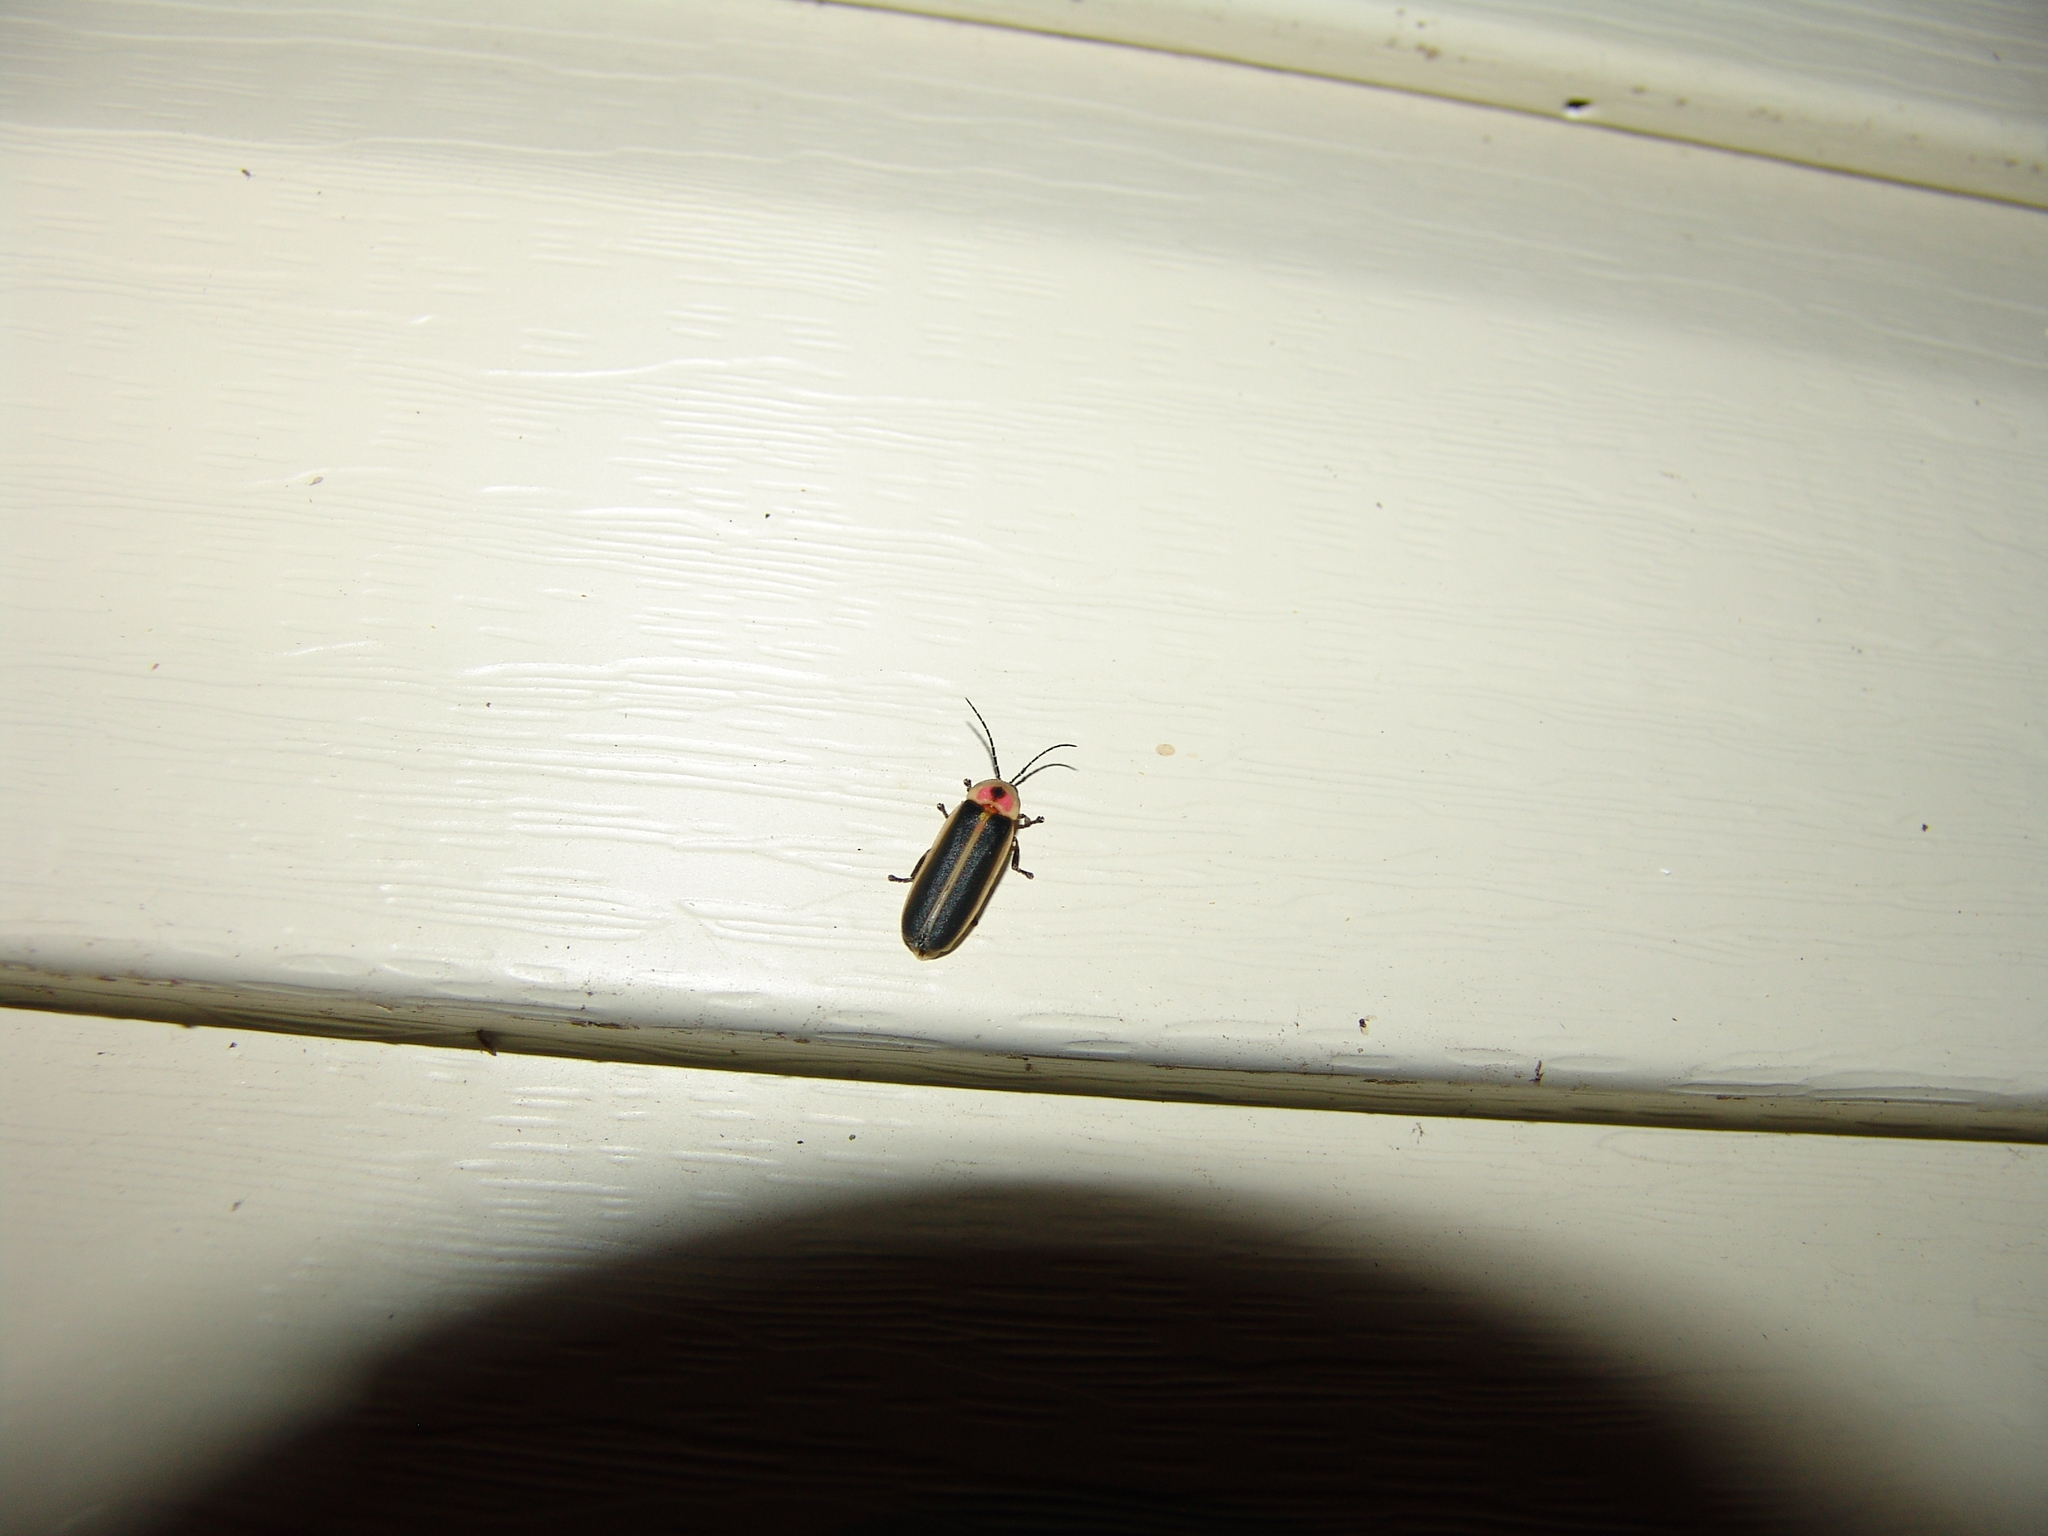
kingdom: Animalia
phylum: Arthropoda
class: Insecta
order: Coleoptera
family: Lampyridae
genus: Photinus
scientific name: Photinus pyralis
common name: Big dipper firefly
